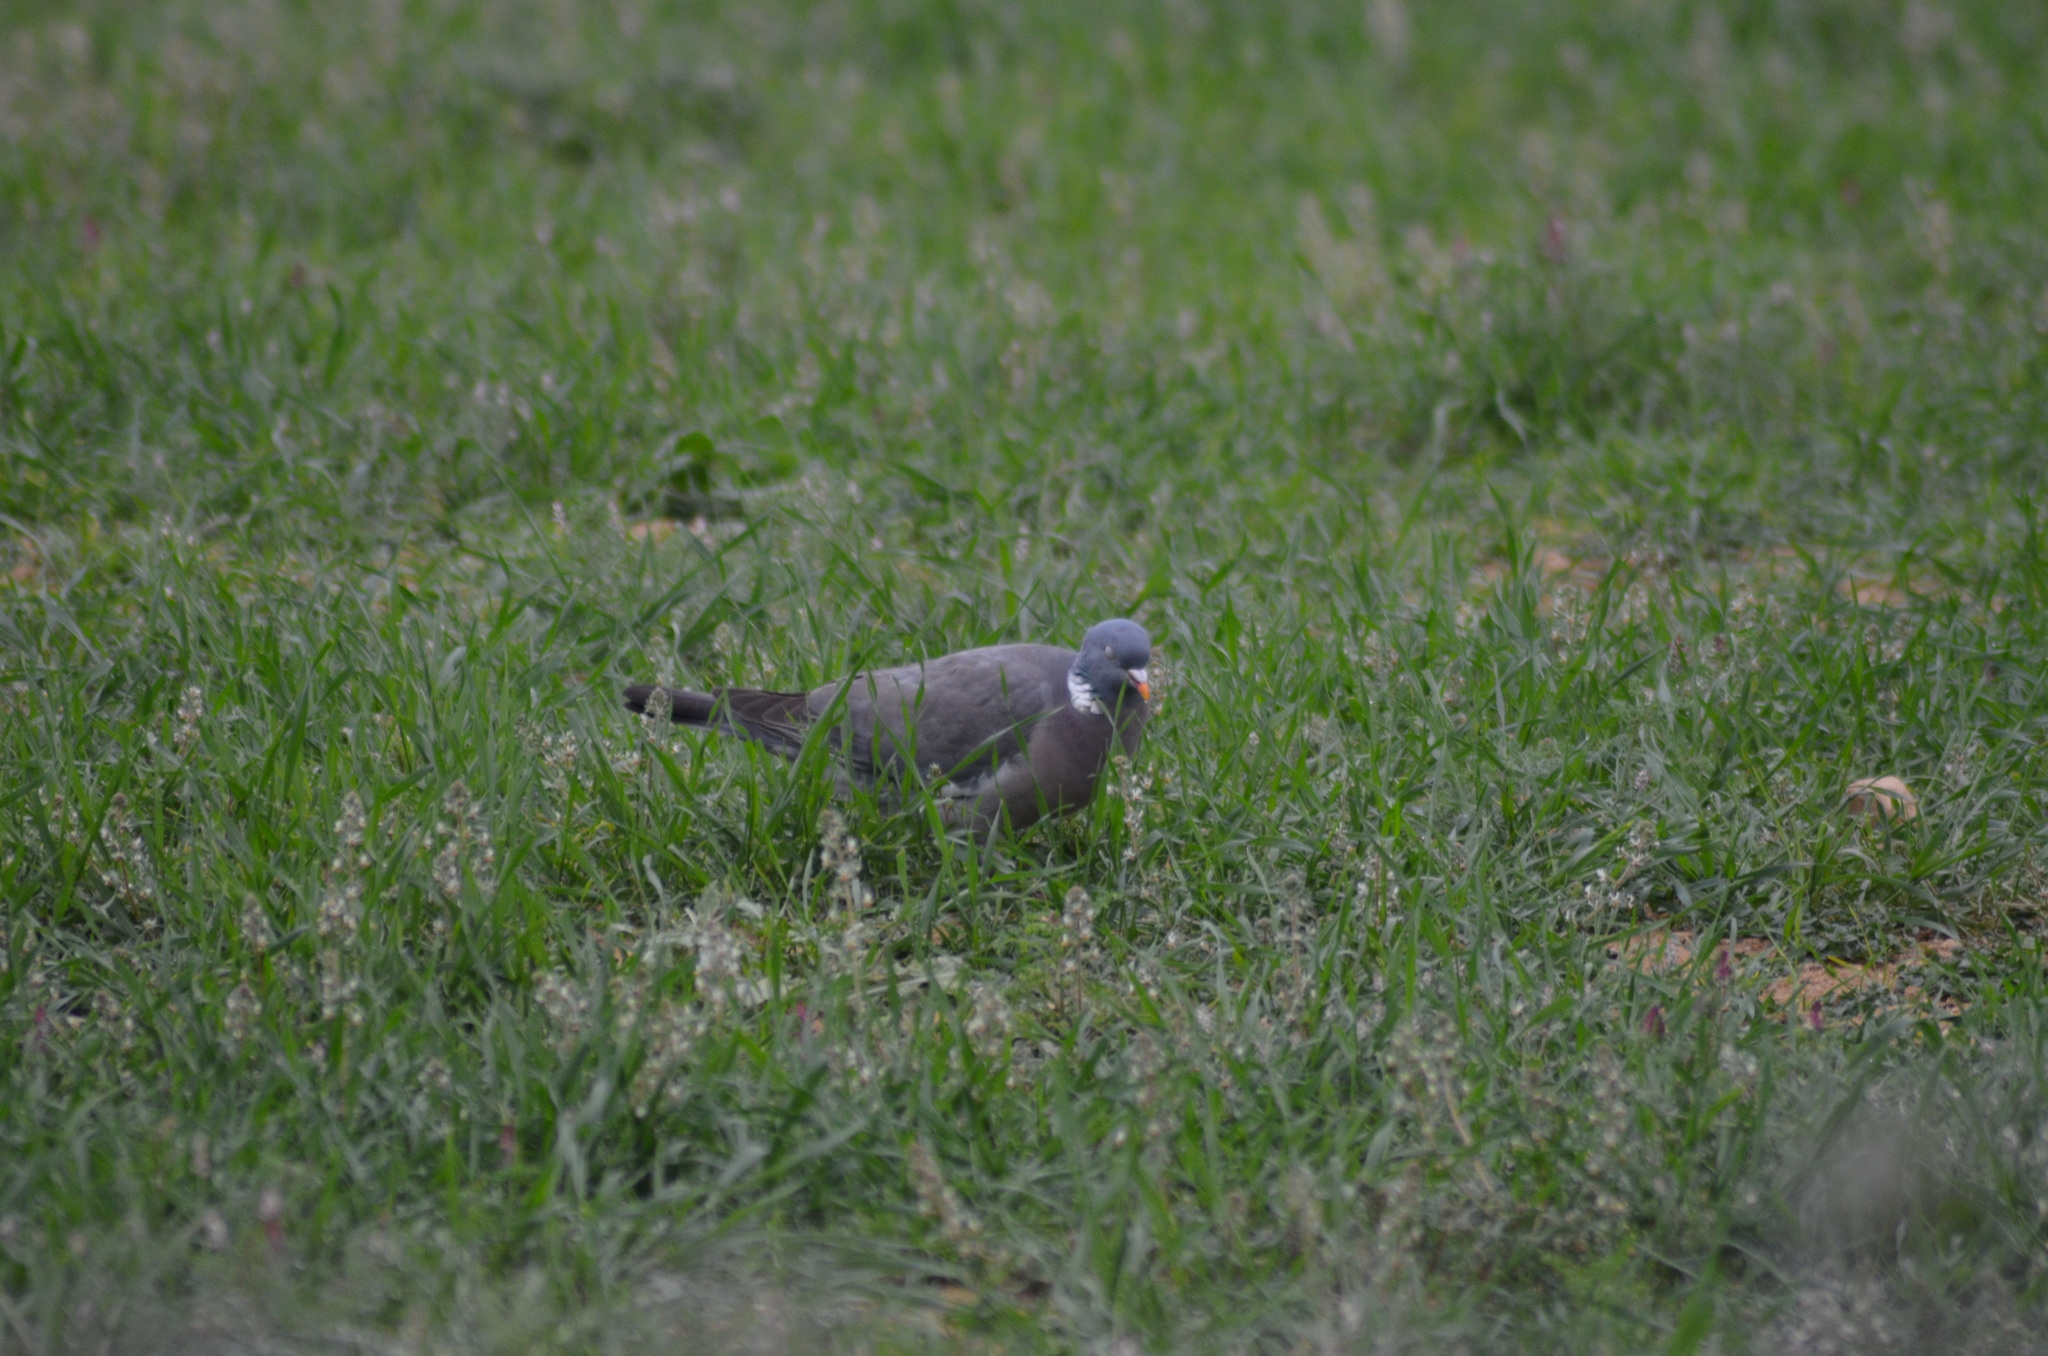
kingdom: Animalia
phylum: Chordata
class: Aves
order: Columbiformes
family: Columbidae
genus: Columba
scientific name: Columba palumbus
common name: Common wood pigeon
